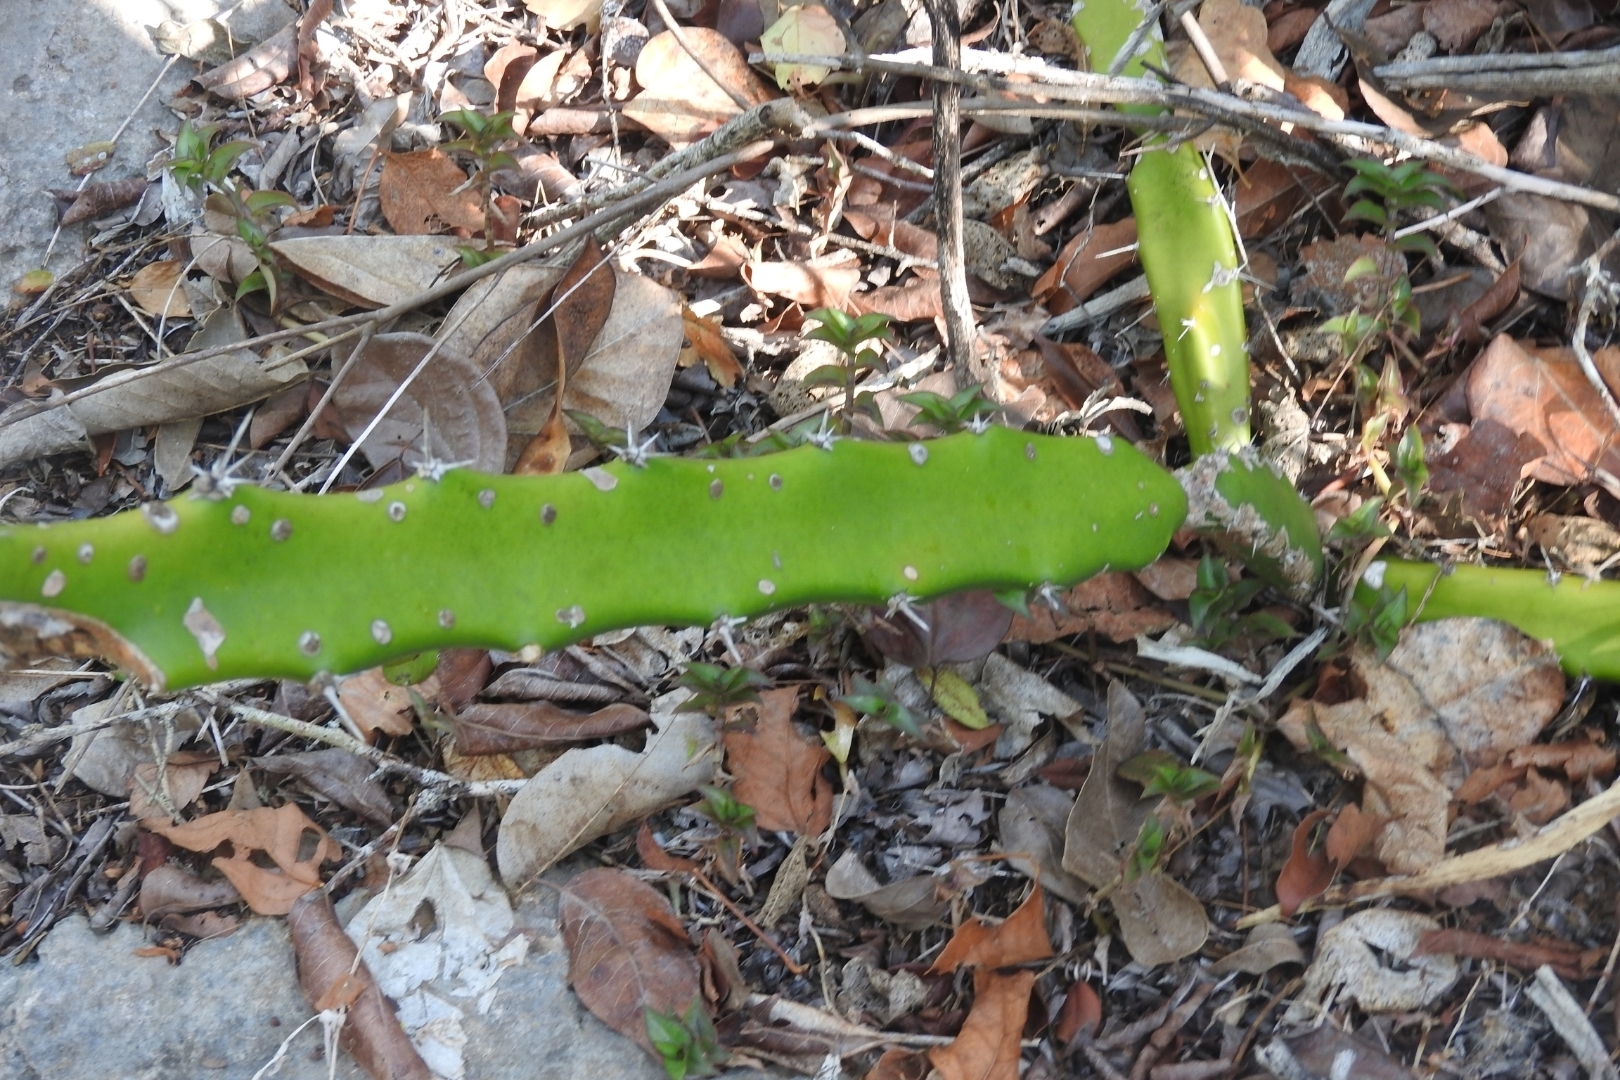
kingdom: Plantae
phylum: Tracheophyta
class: Magnoliopsida
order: Caryophyllales
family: Cactaceae
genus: Acanthocereus
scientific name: Acanthocereus tetragonus
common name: Triangle cactus
